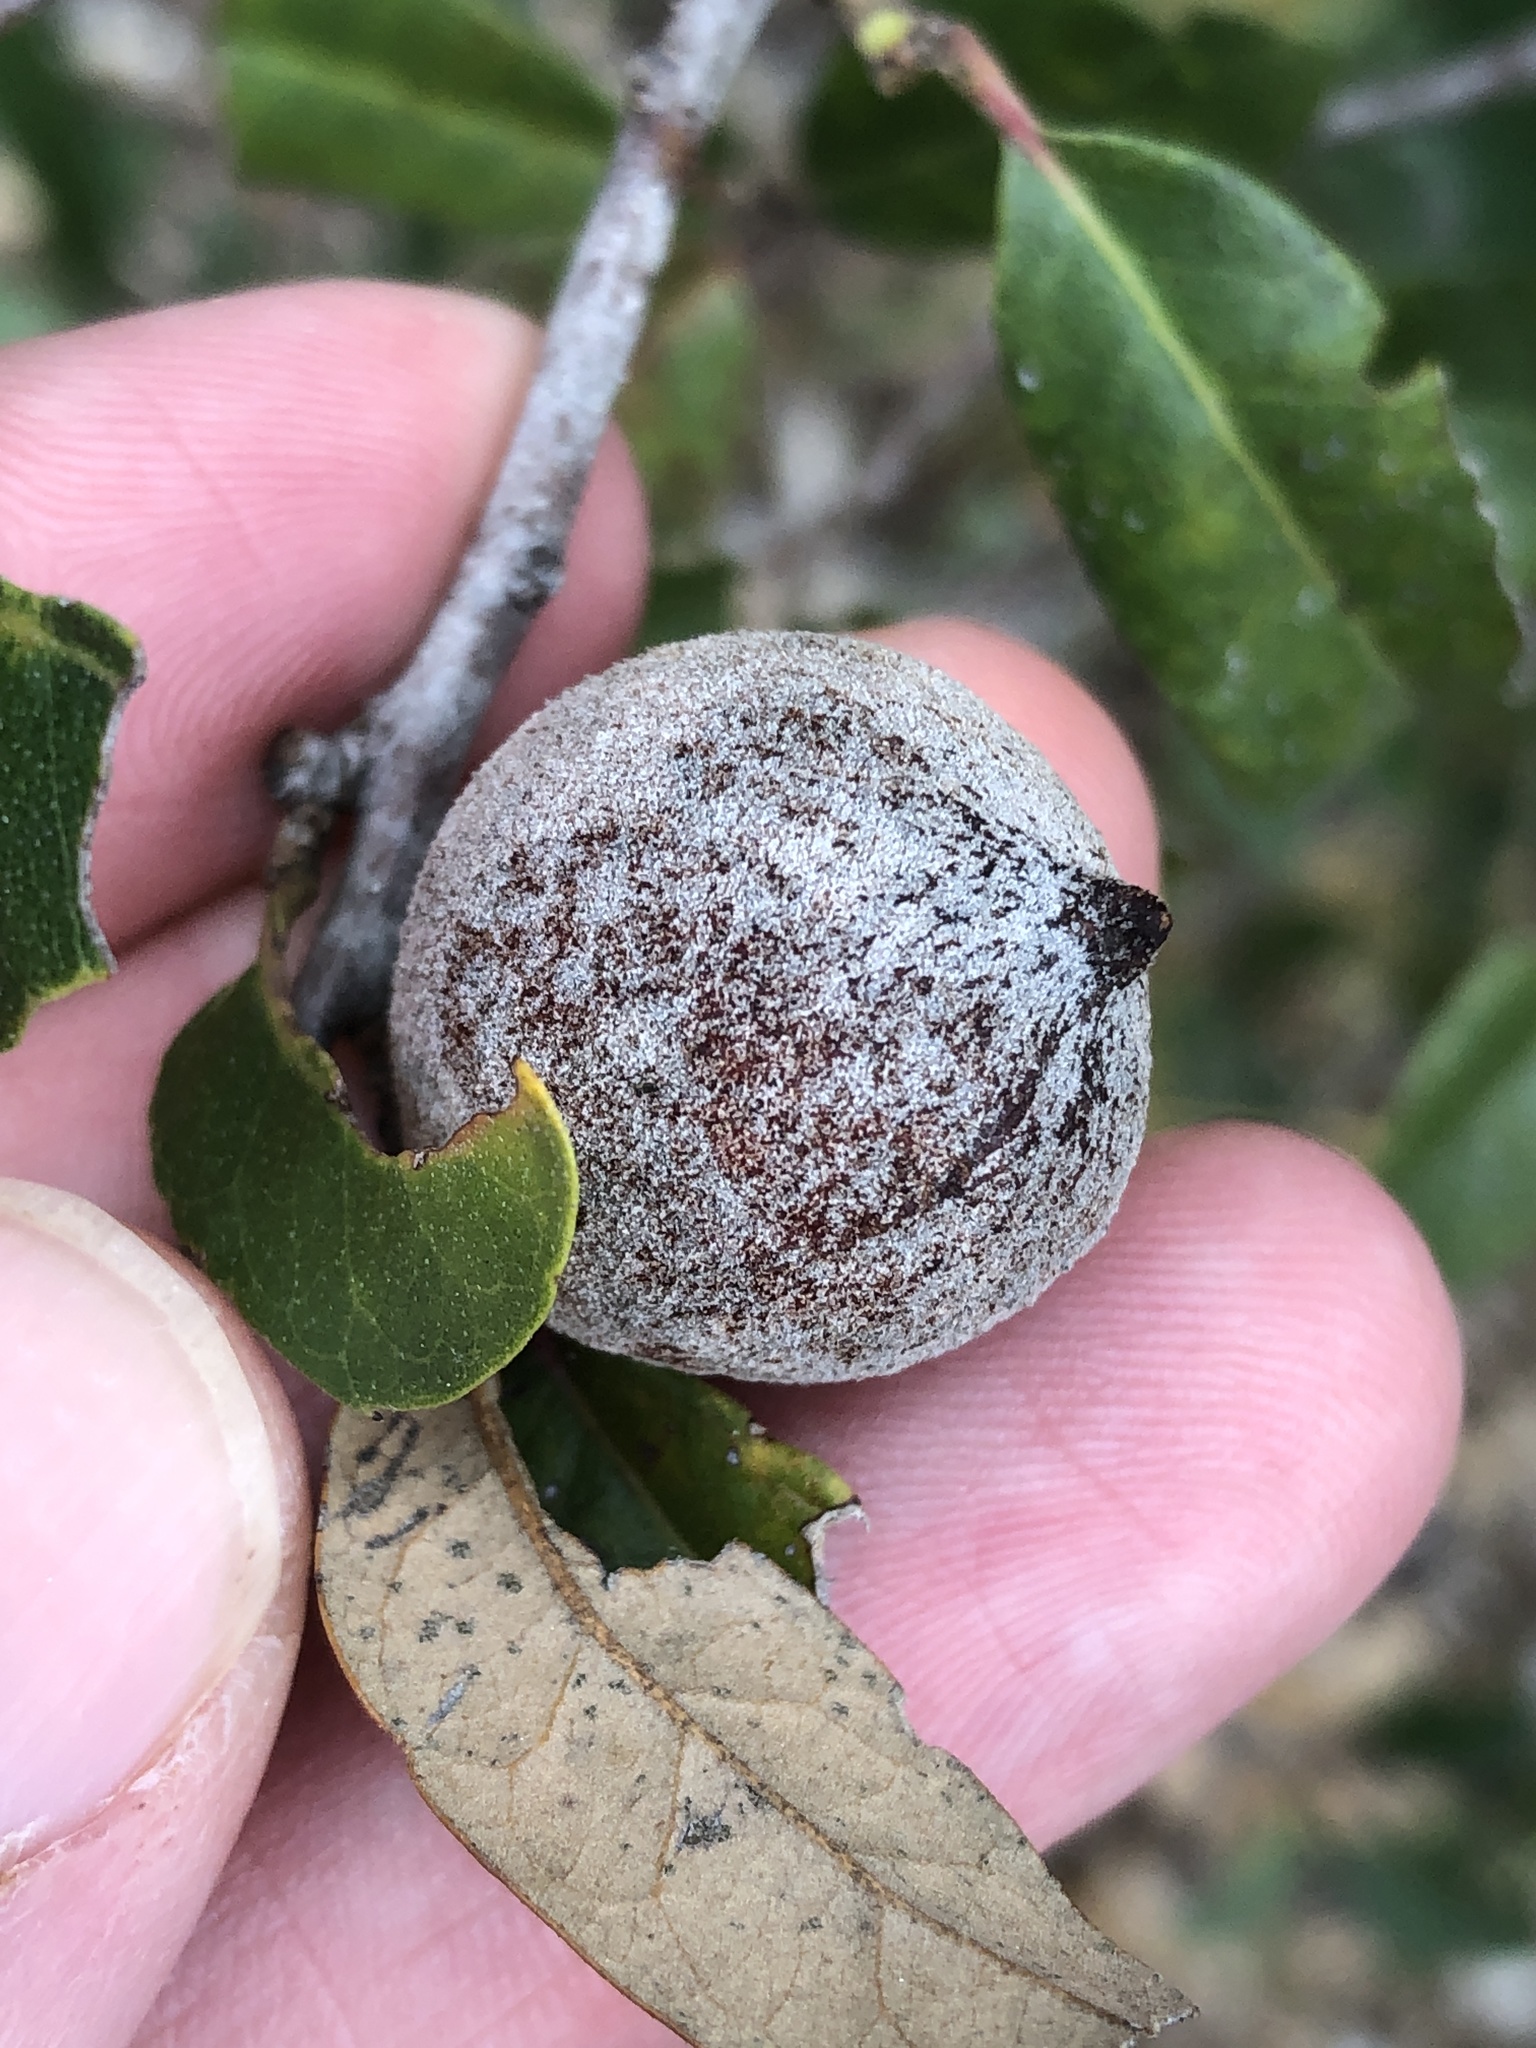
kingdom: Animalia
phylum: Arthropoda
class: Insecta
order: Hymenoptera
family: Cynipidae
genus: Disholcaspis
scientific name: Disholcaspis
